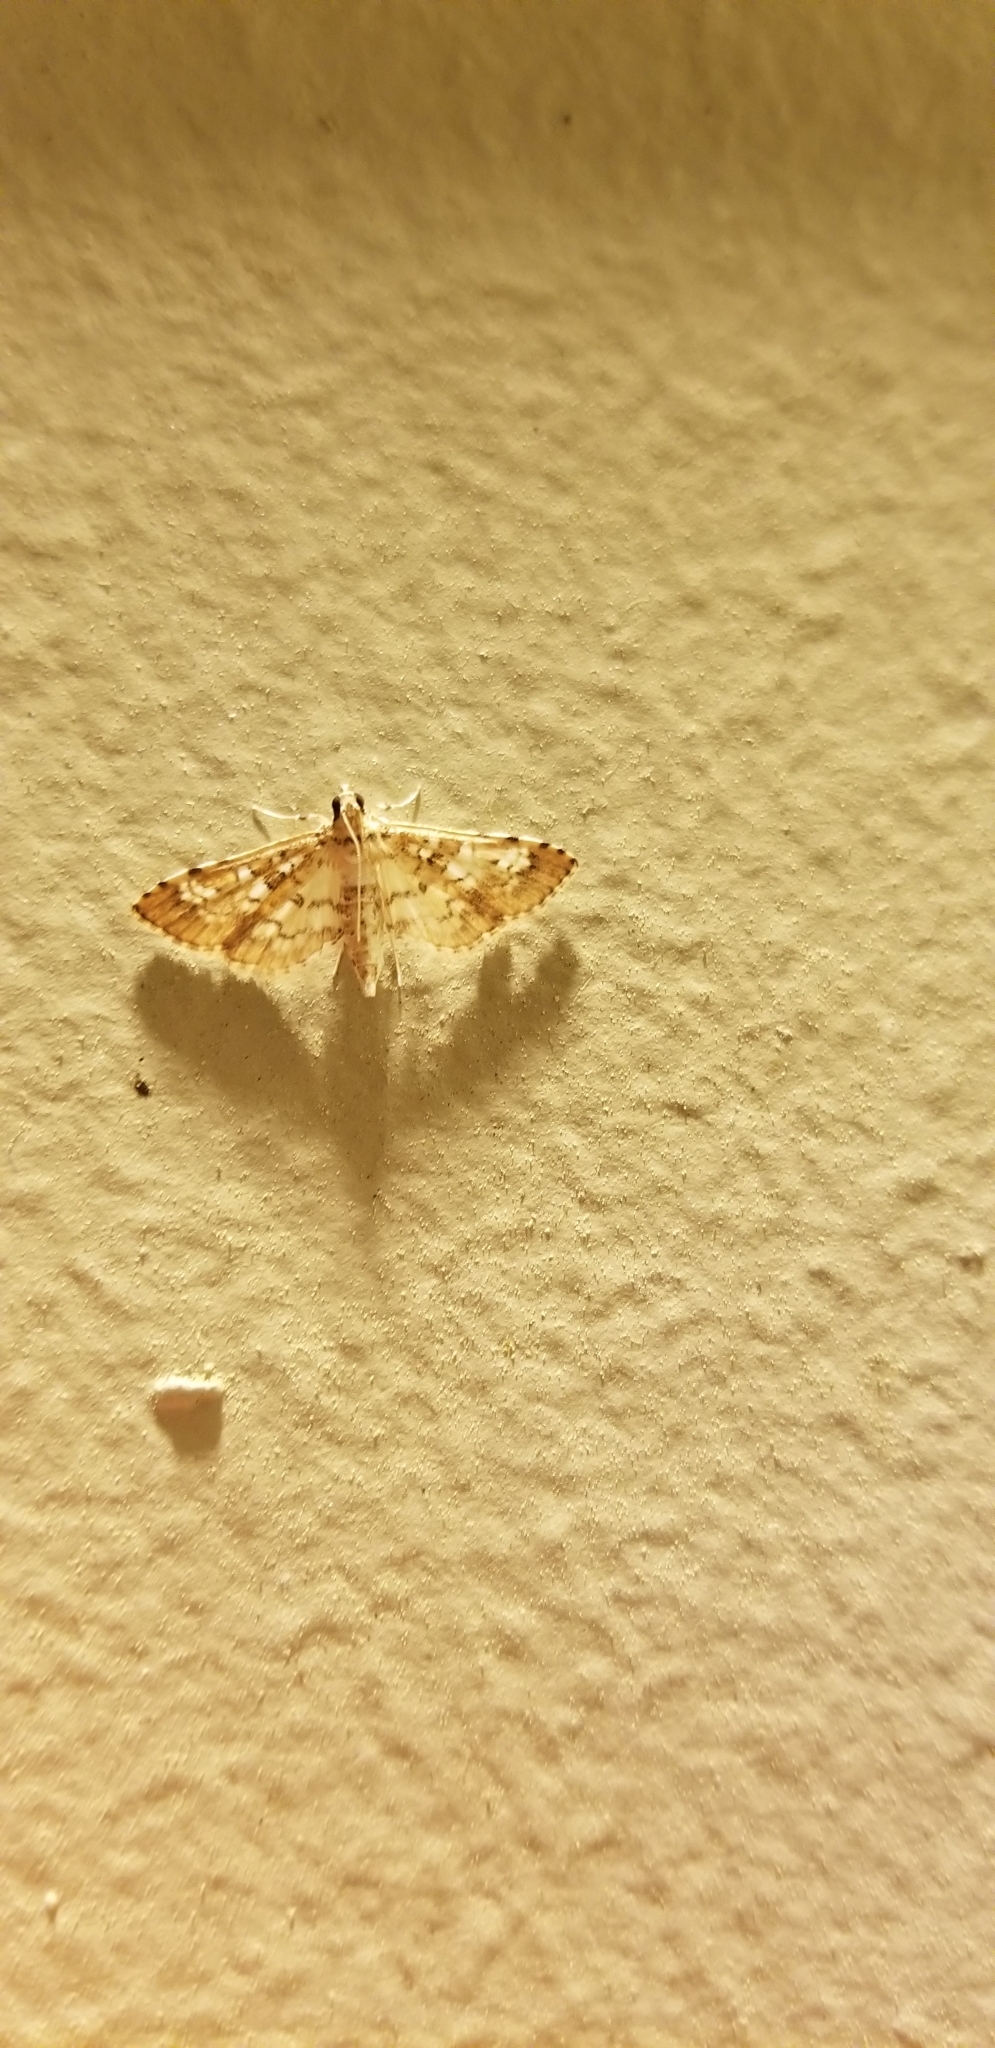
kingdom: Animalia
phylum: Arthropoda
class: Insecta
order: Lepidoptera
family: Crambidae
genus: Samea
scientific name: Samea multiplicalis
